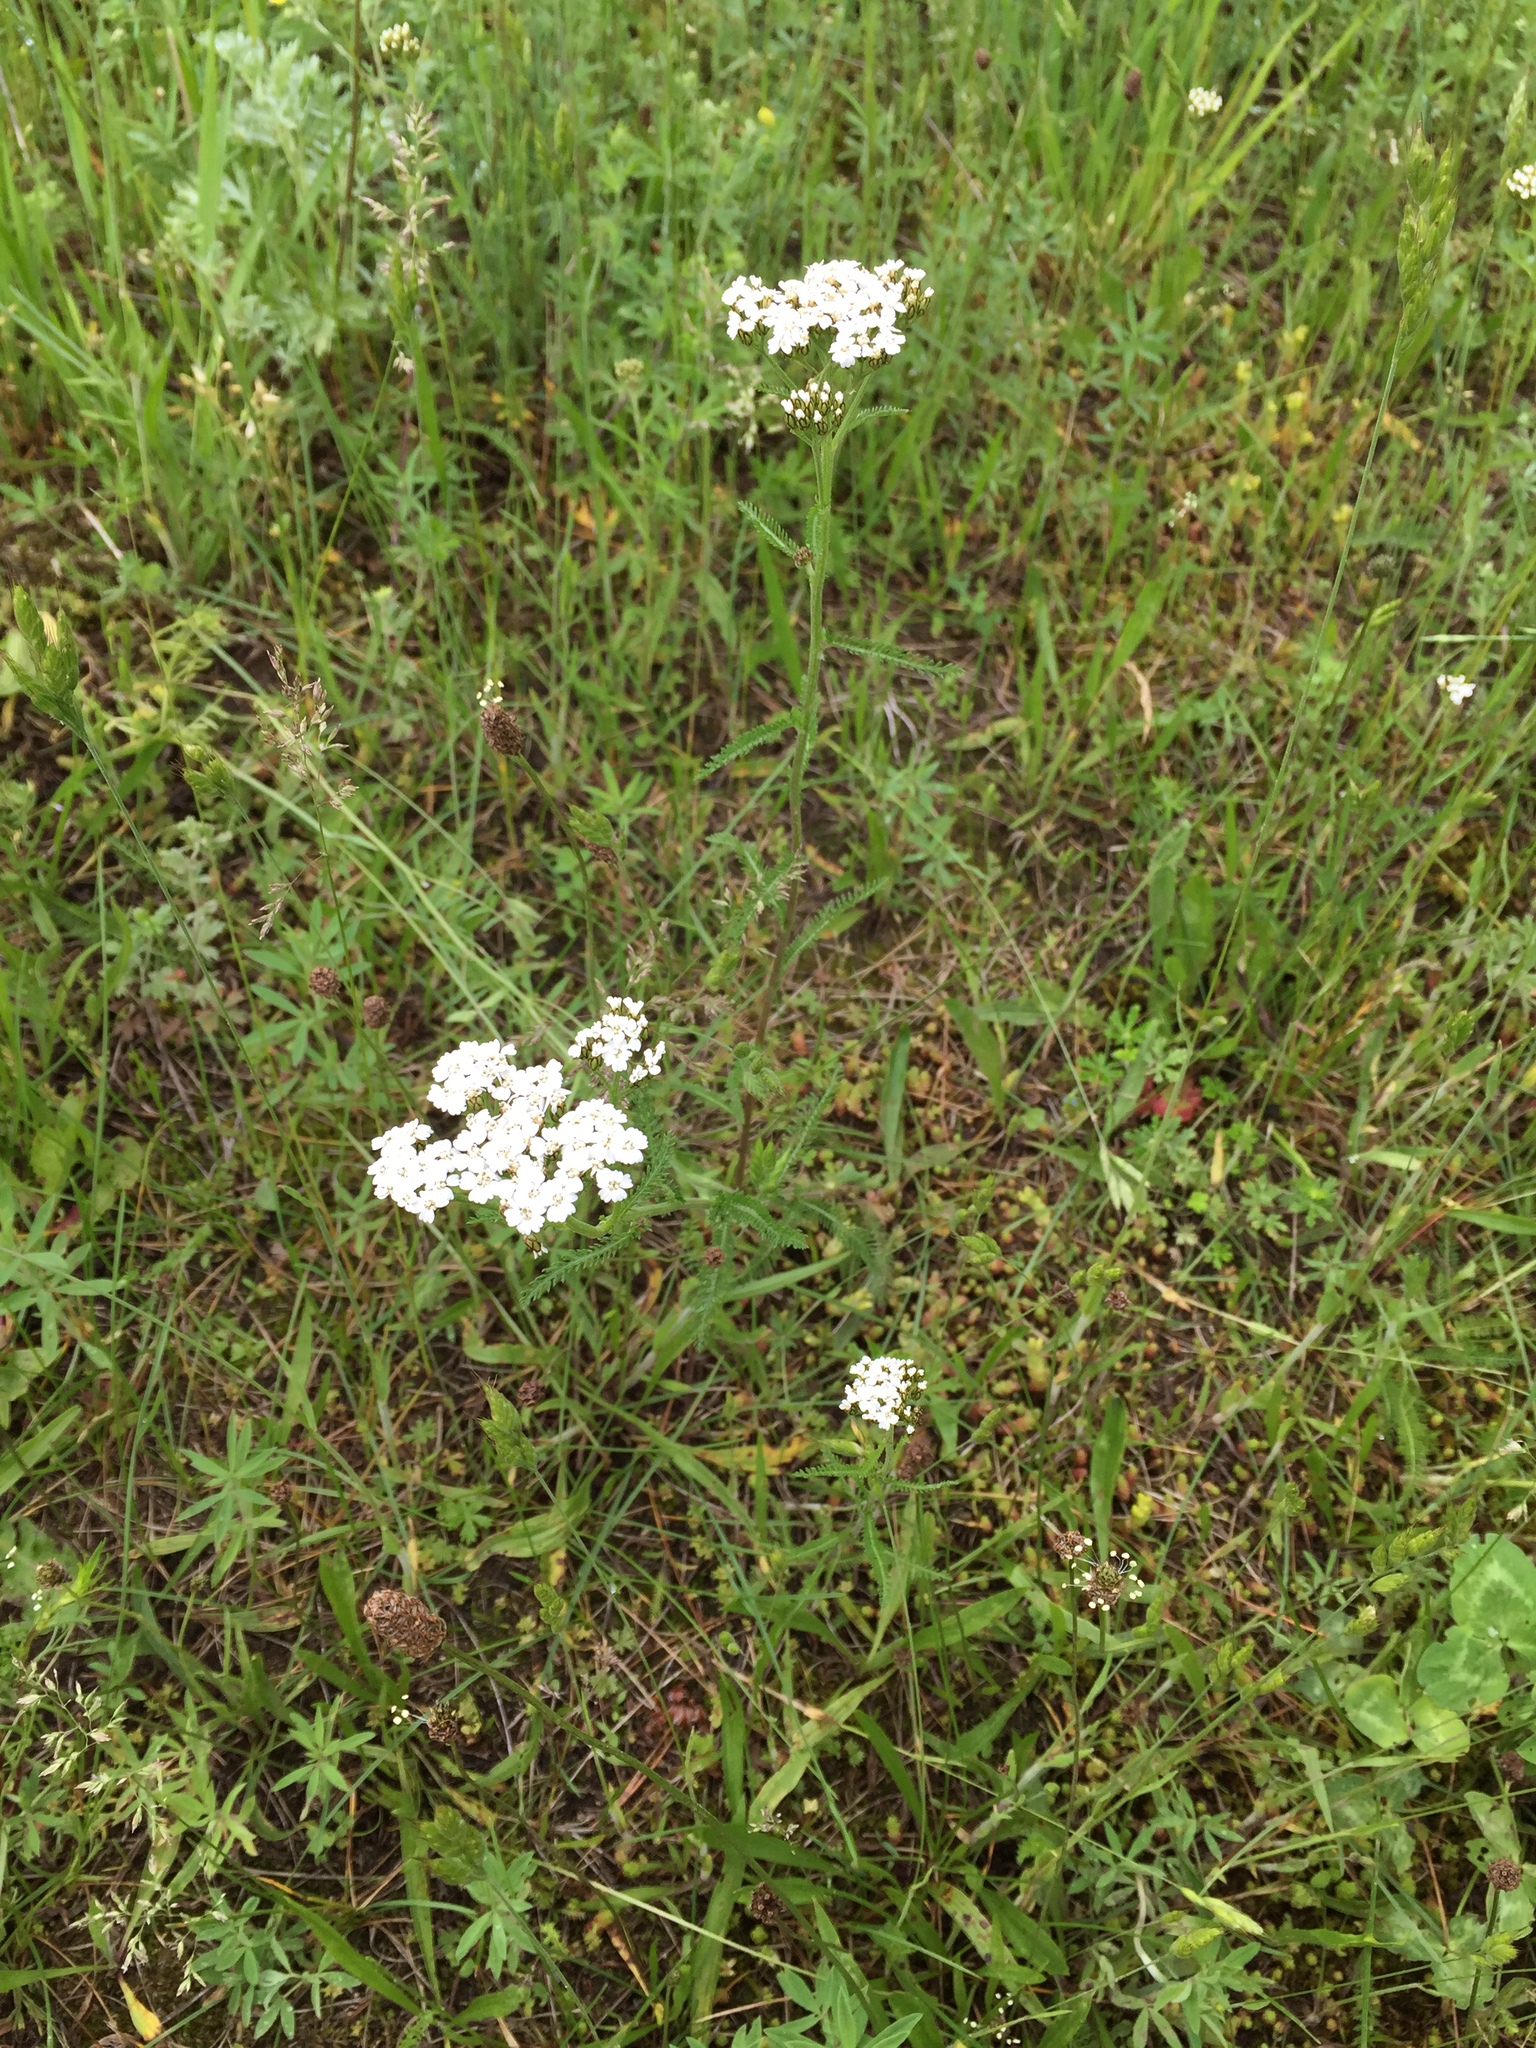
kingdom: Plantae
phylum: Tracheophyta
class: Magnoliopsida
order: Asterales
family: Asteraceae
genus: Achillea
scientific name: Achillea millefolium
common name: Yarrow
